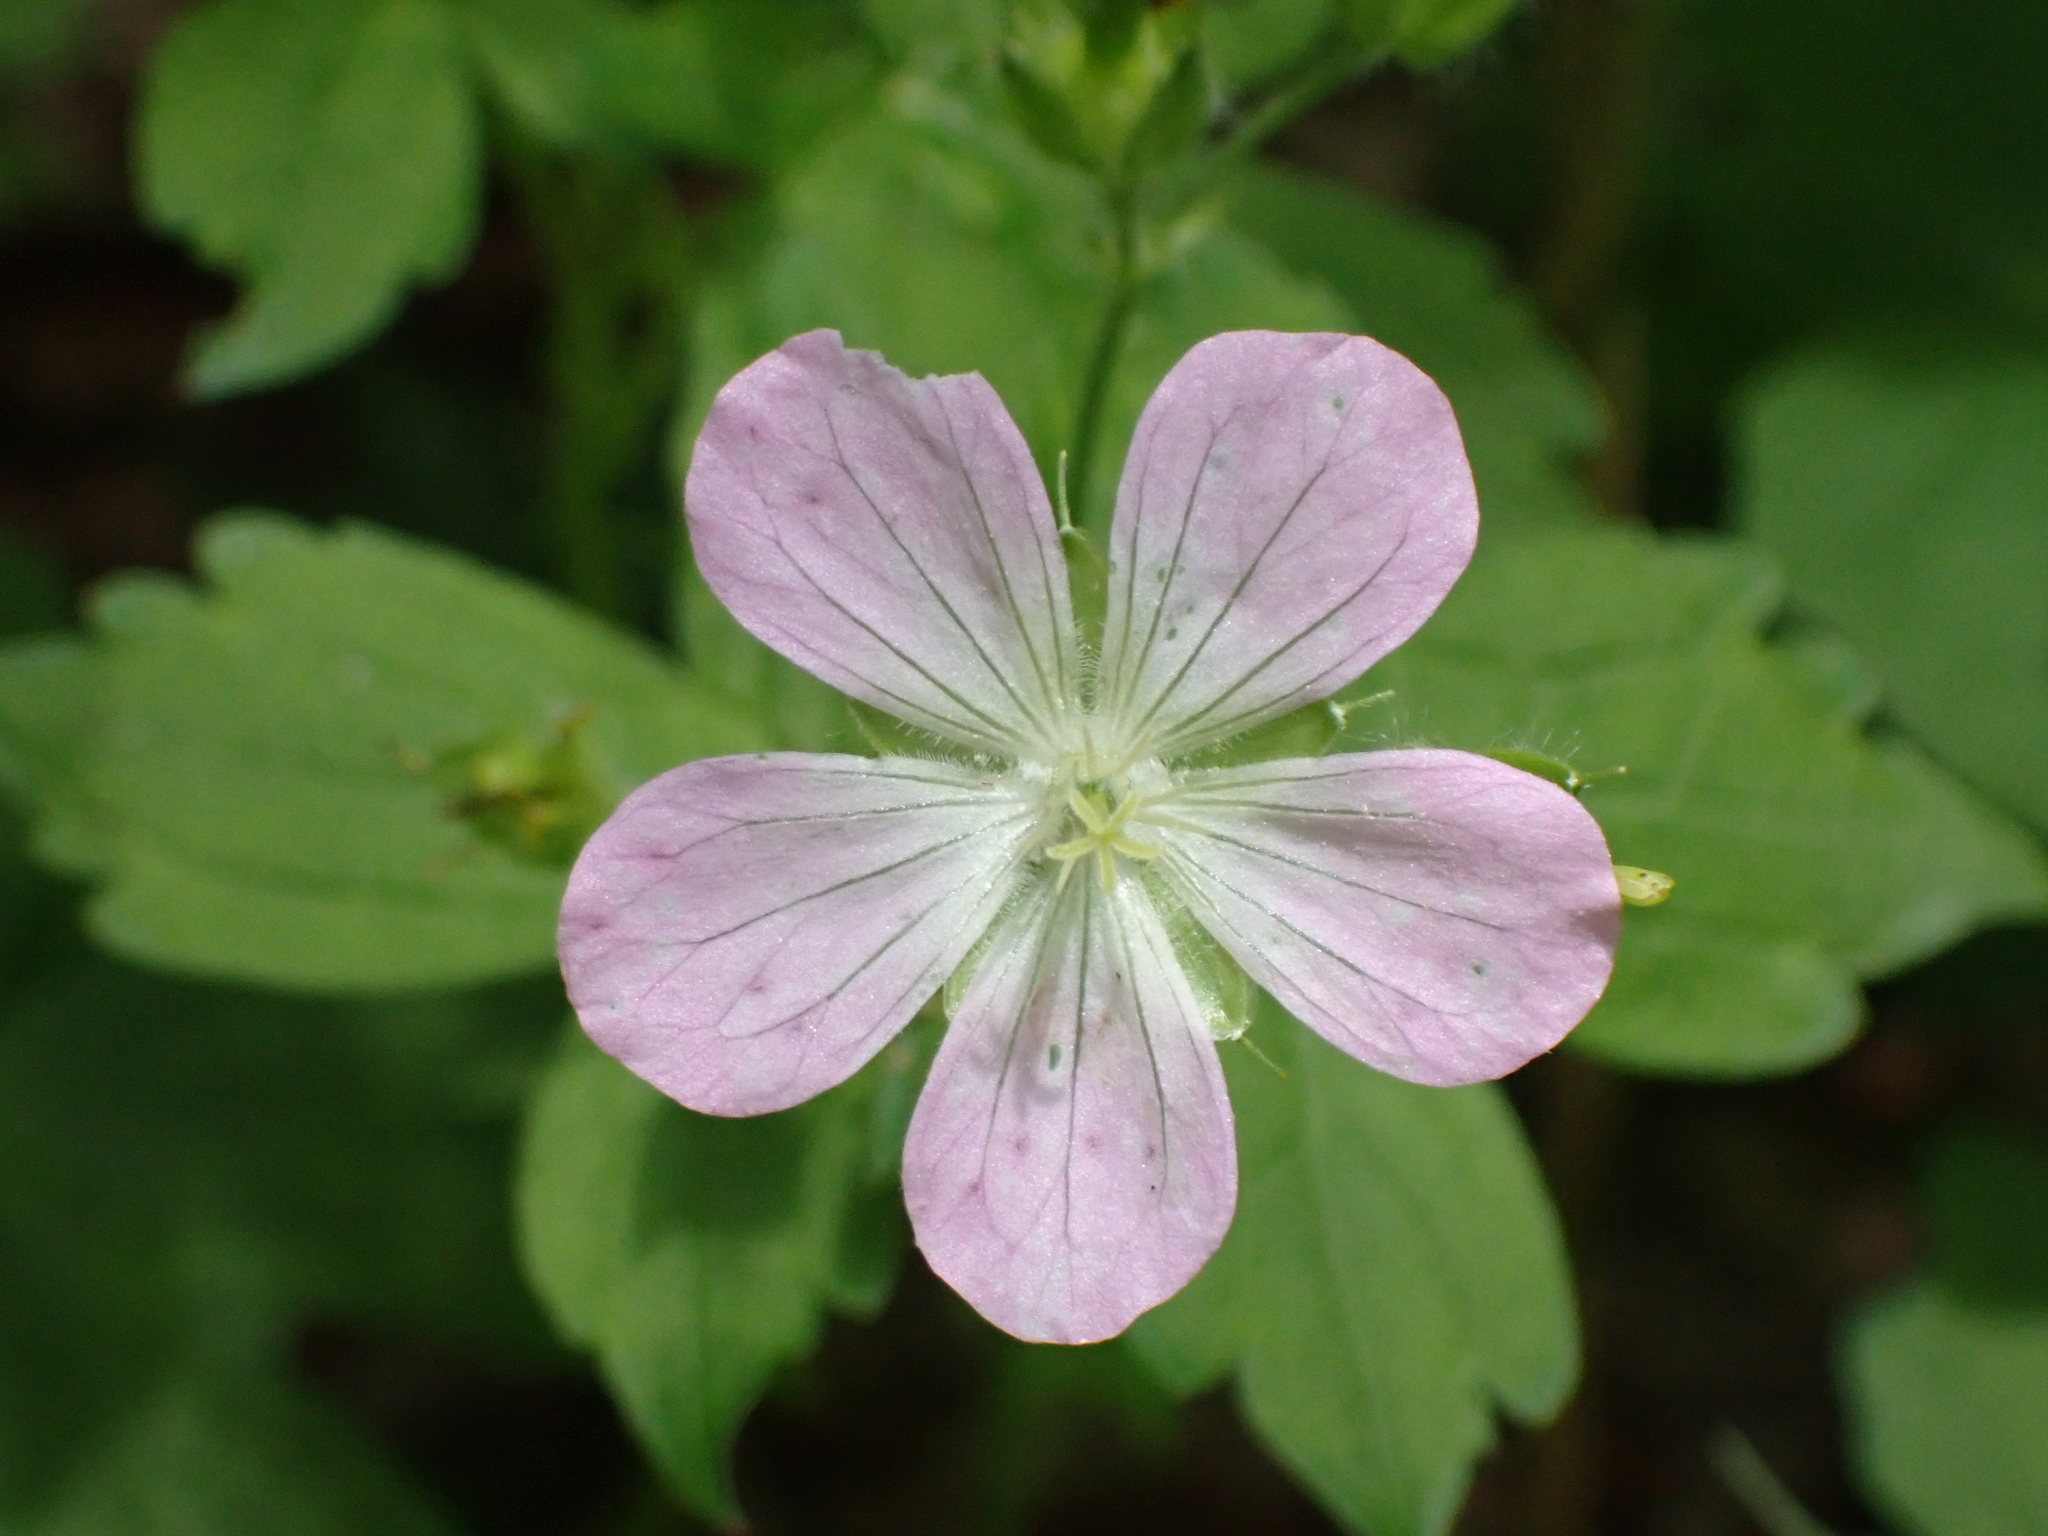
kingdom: Plantae
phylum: Tracheophyta
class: Magnoliopsida
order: Geraniales
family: Geraniaceae
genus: Geranium
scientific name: Geranium maculatum
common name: Spotted geranium
